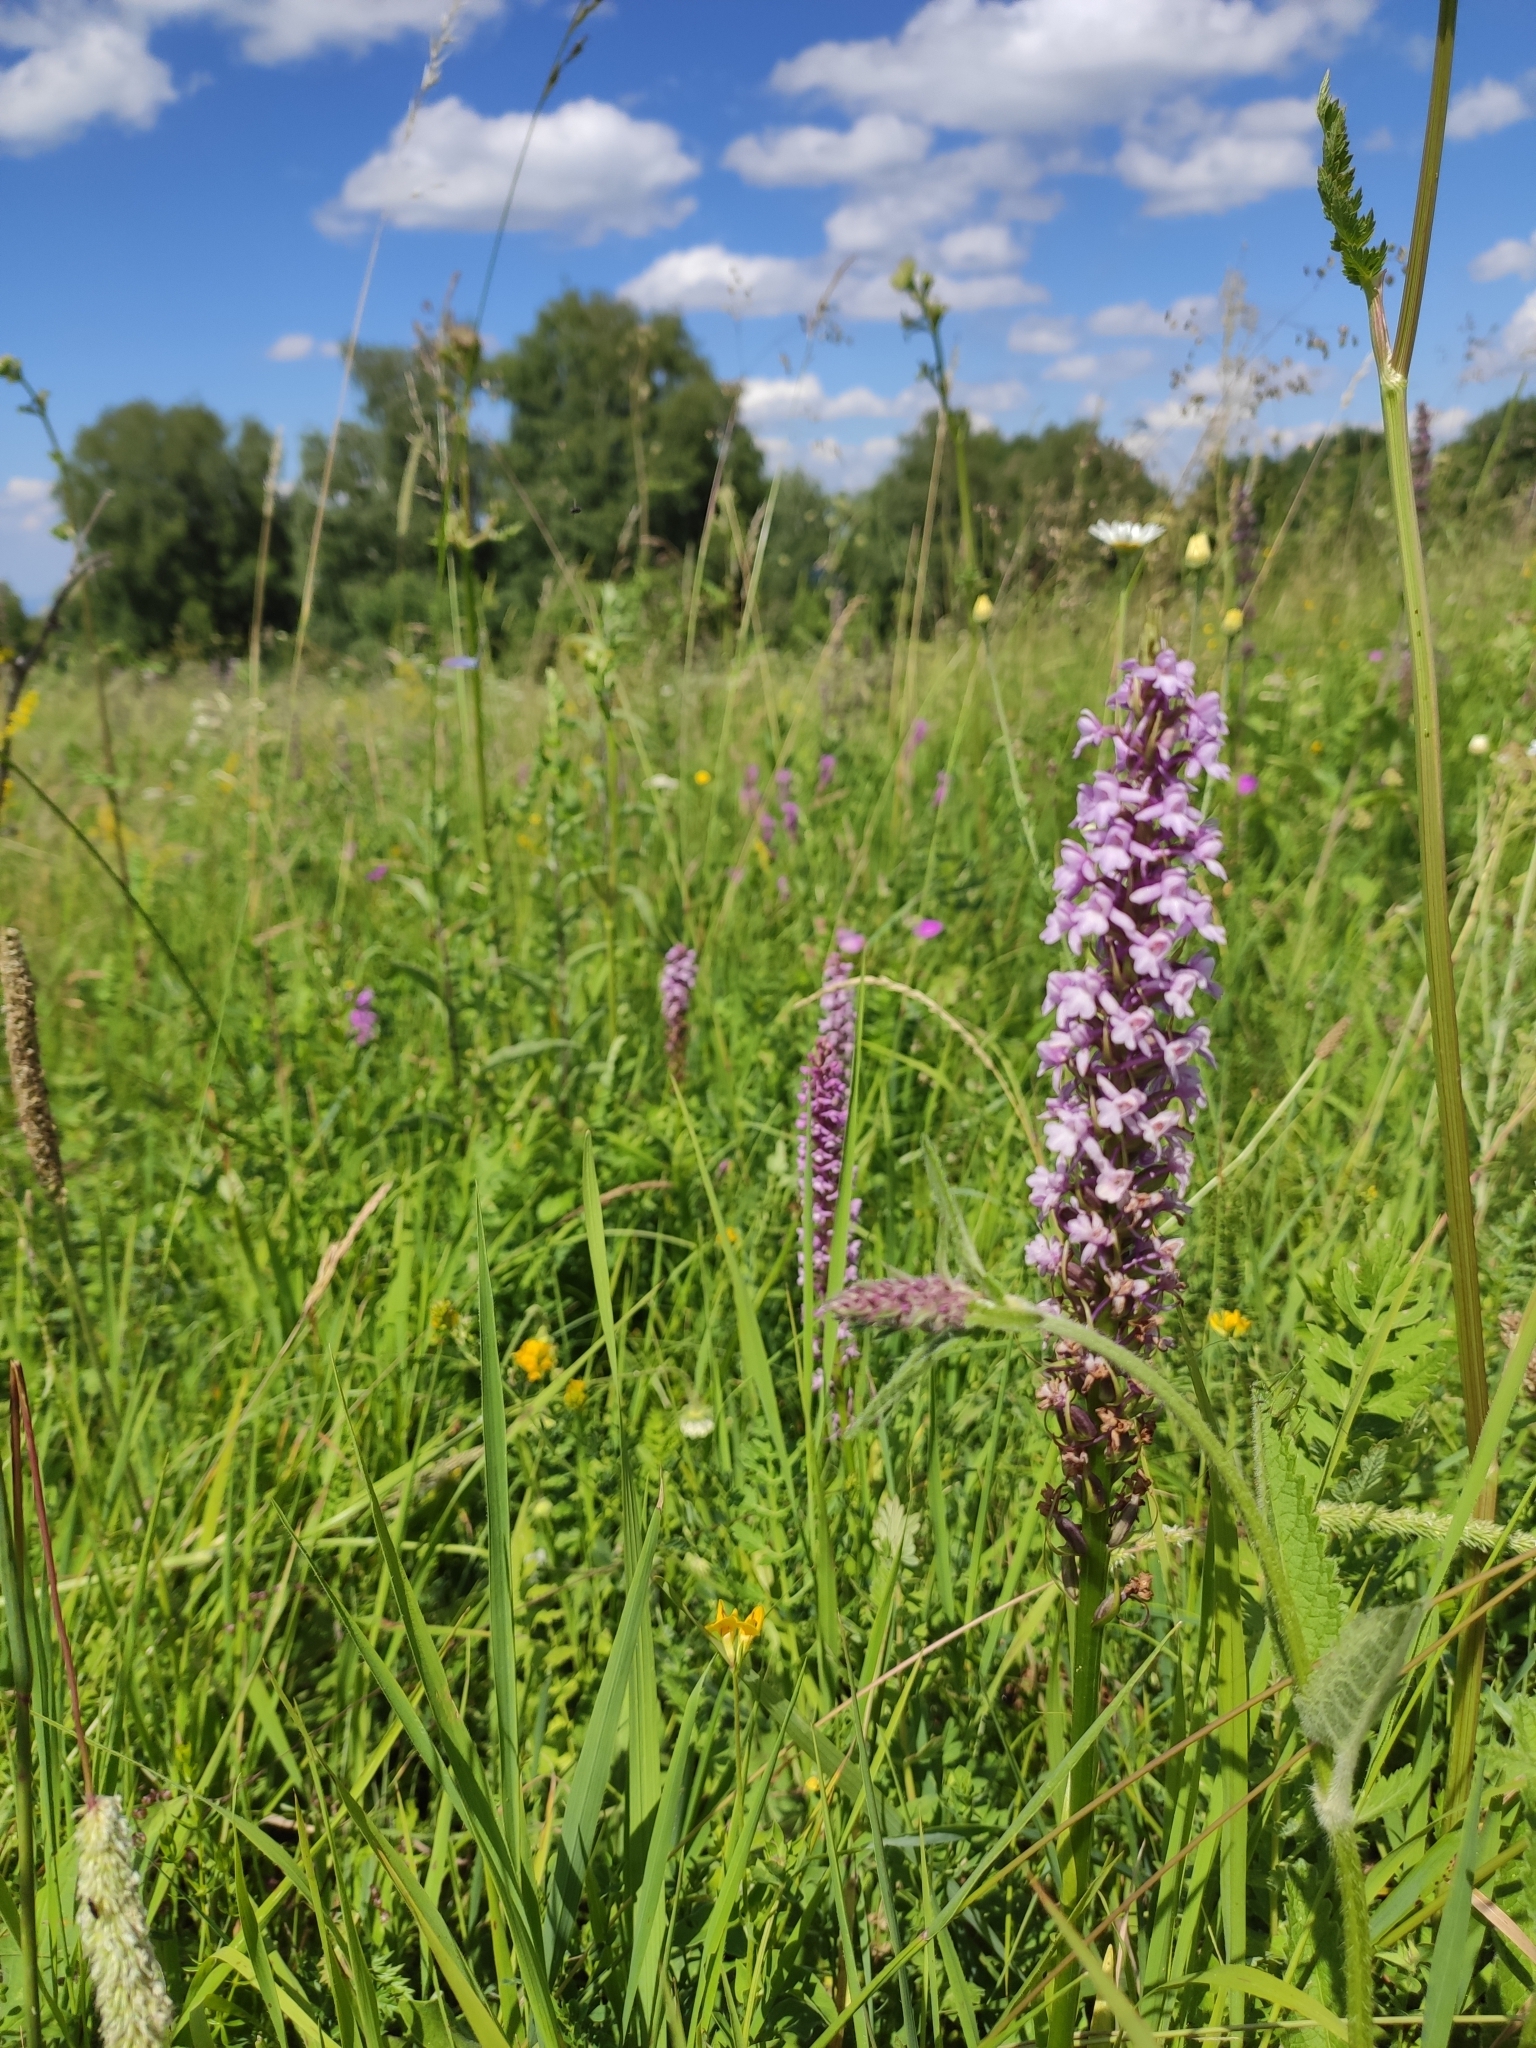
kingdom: Plantae
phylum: Tracheophyta
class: Liliopsida
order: Asparagales
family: Orchidaceae
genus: Gymnadenia
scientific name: Gymnadenia conopsea
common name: Fragrant orchid
